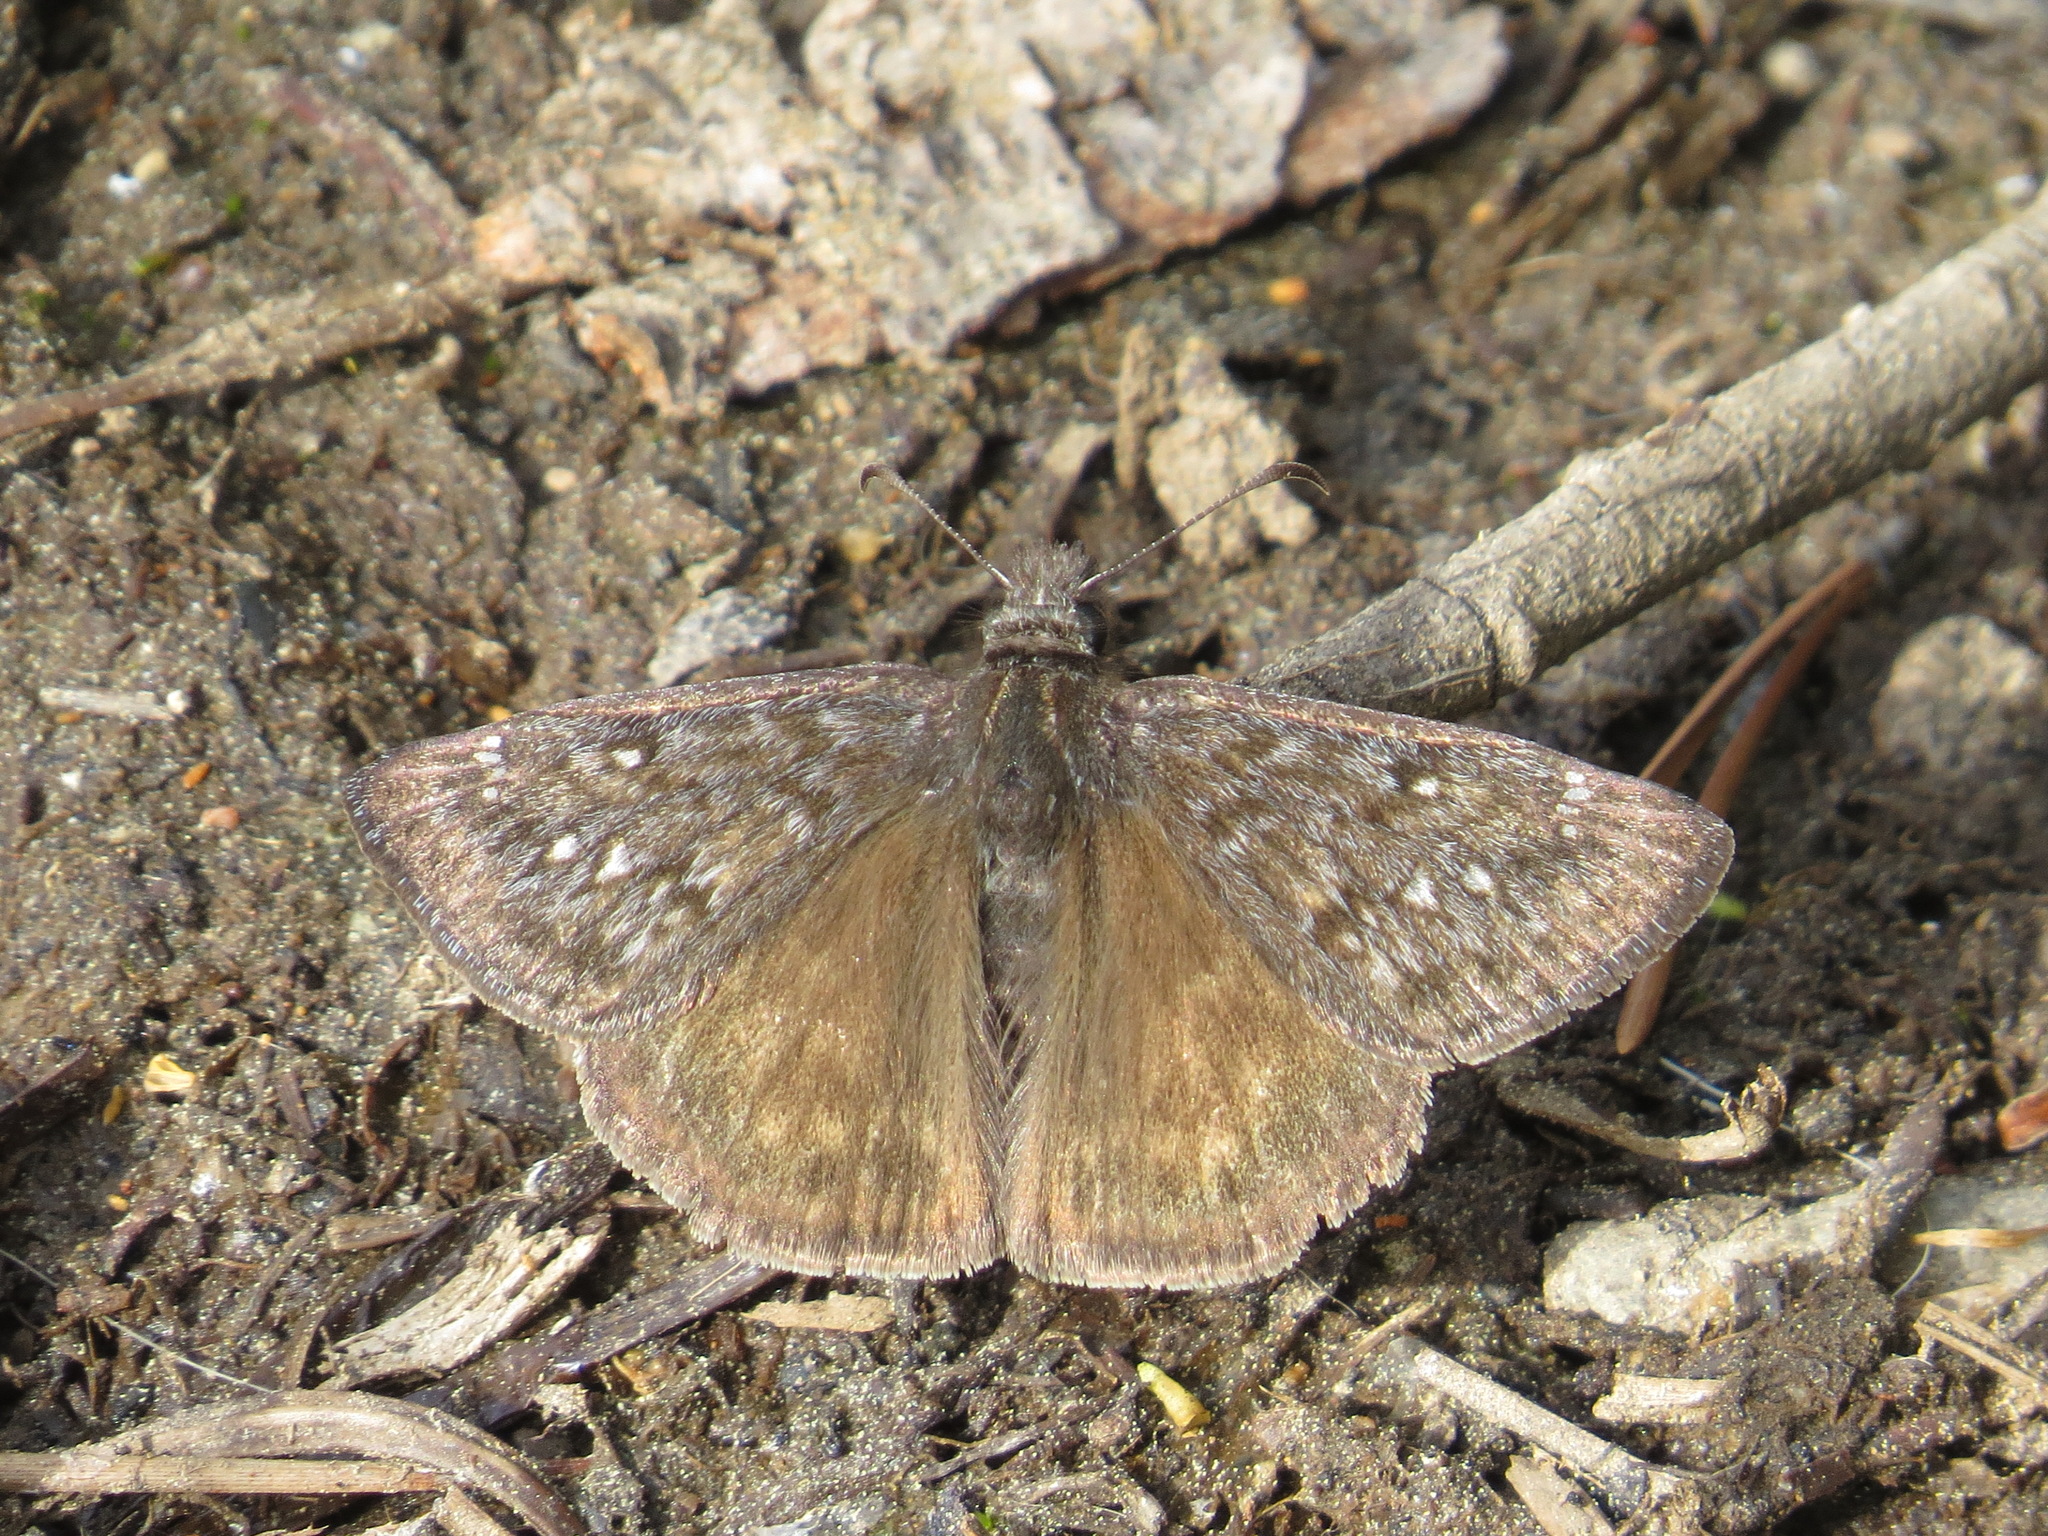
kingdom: Animalia
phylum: Arthropoda
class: Insecta
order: Lepidoptera
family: Hesperiidae
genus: Erynnis
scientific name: Erynnis propertius
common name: Propertius duskywing
